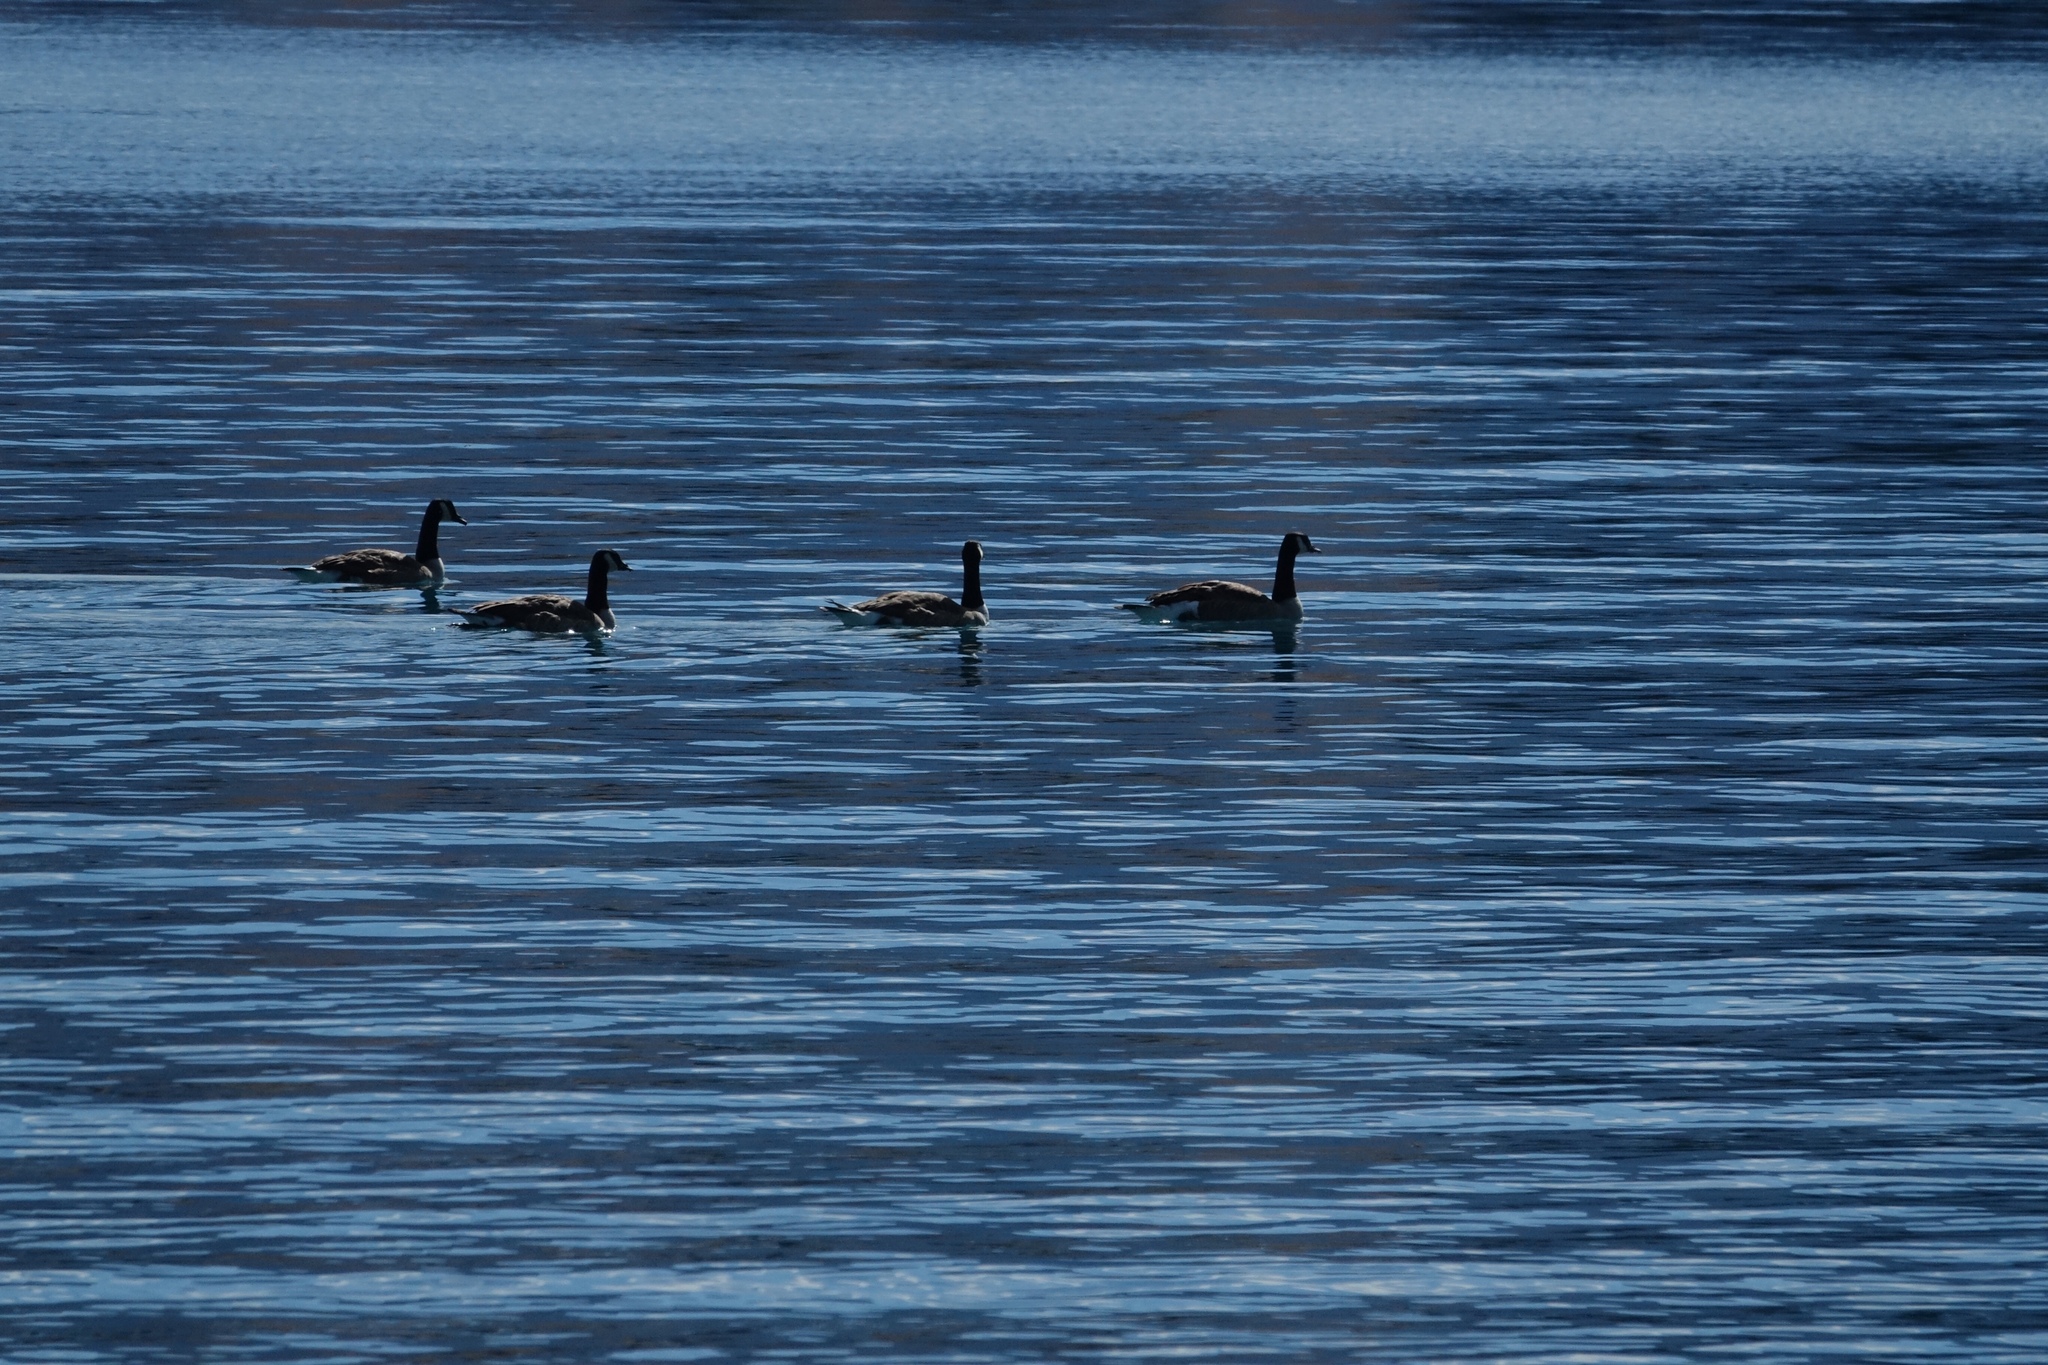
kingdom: Animalia
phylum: Chordata
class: Aves
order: Anseriformes
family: Anatidae
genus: Branta
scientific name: Branta canadensis
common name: Canada goose
